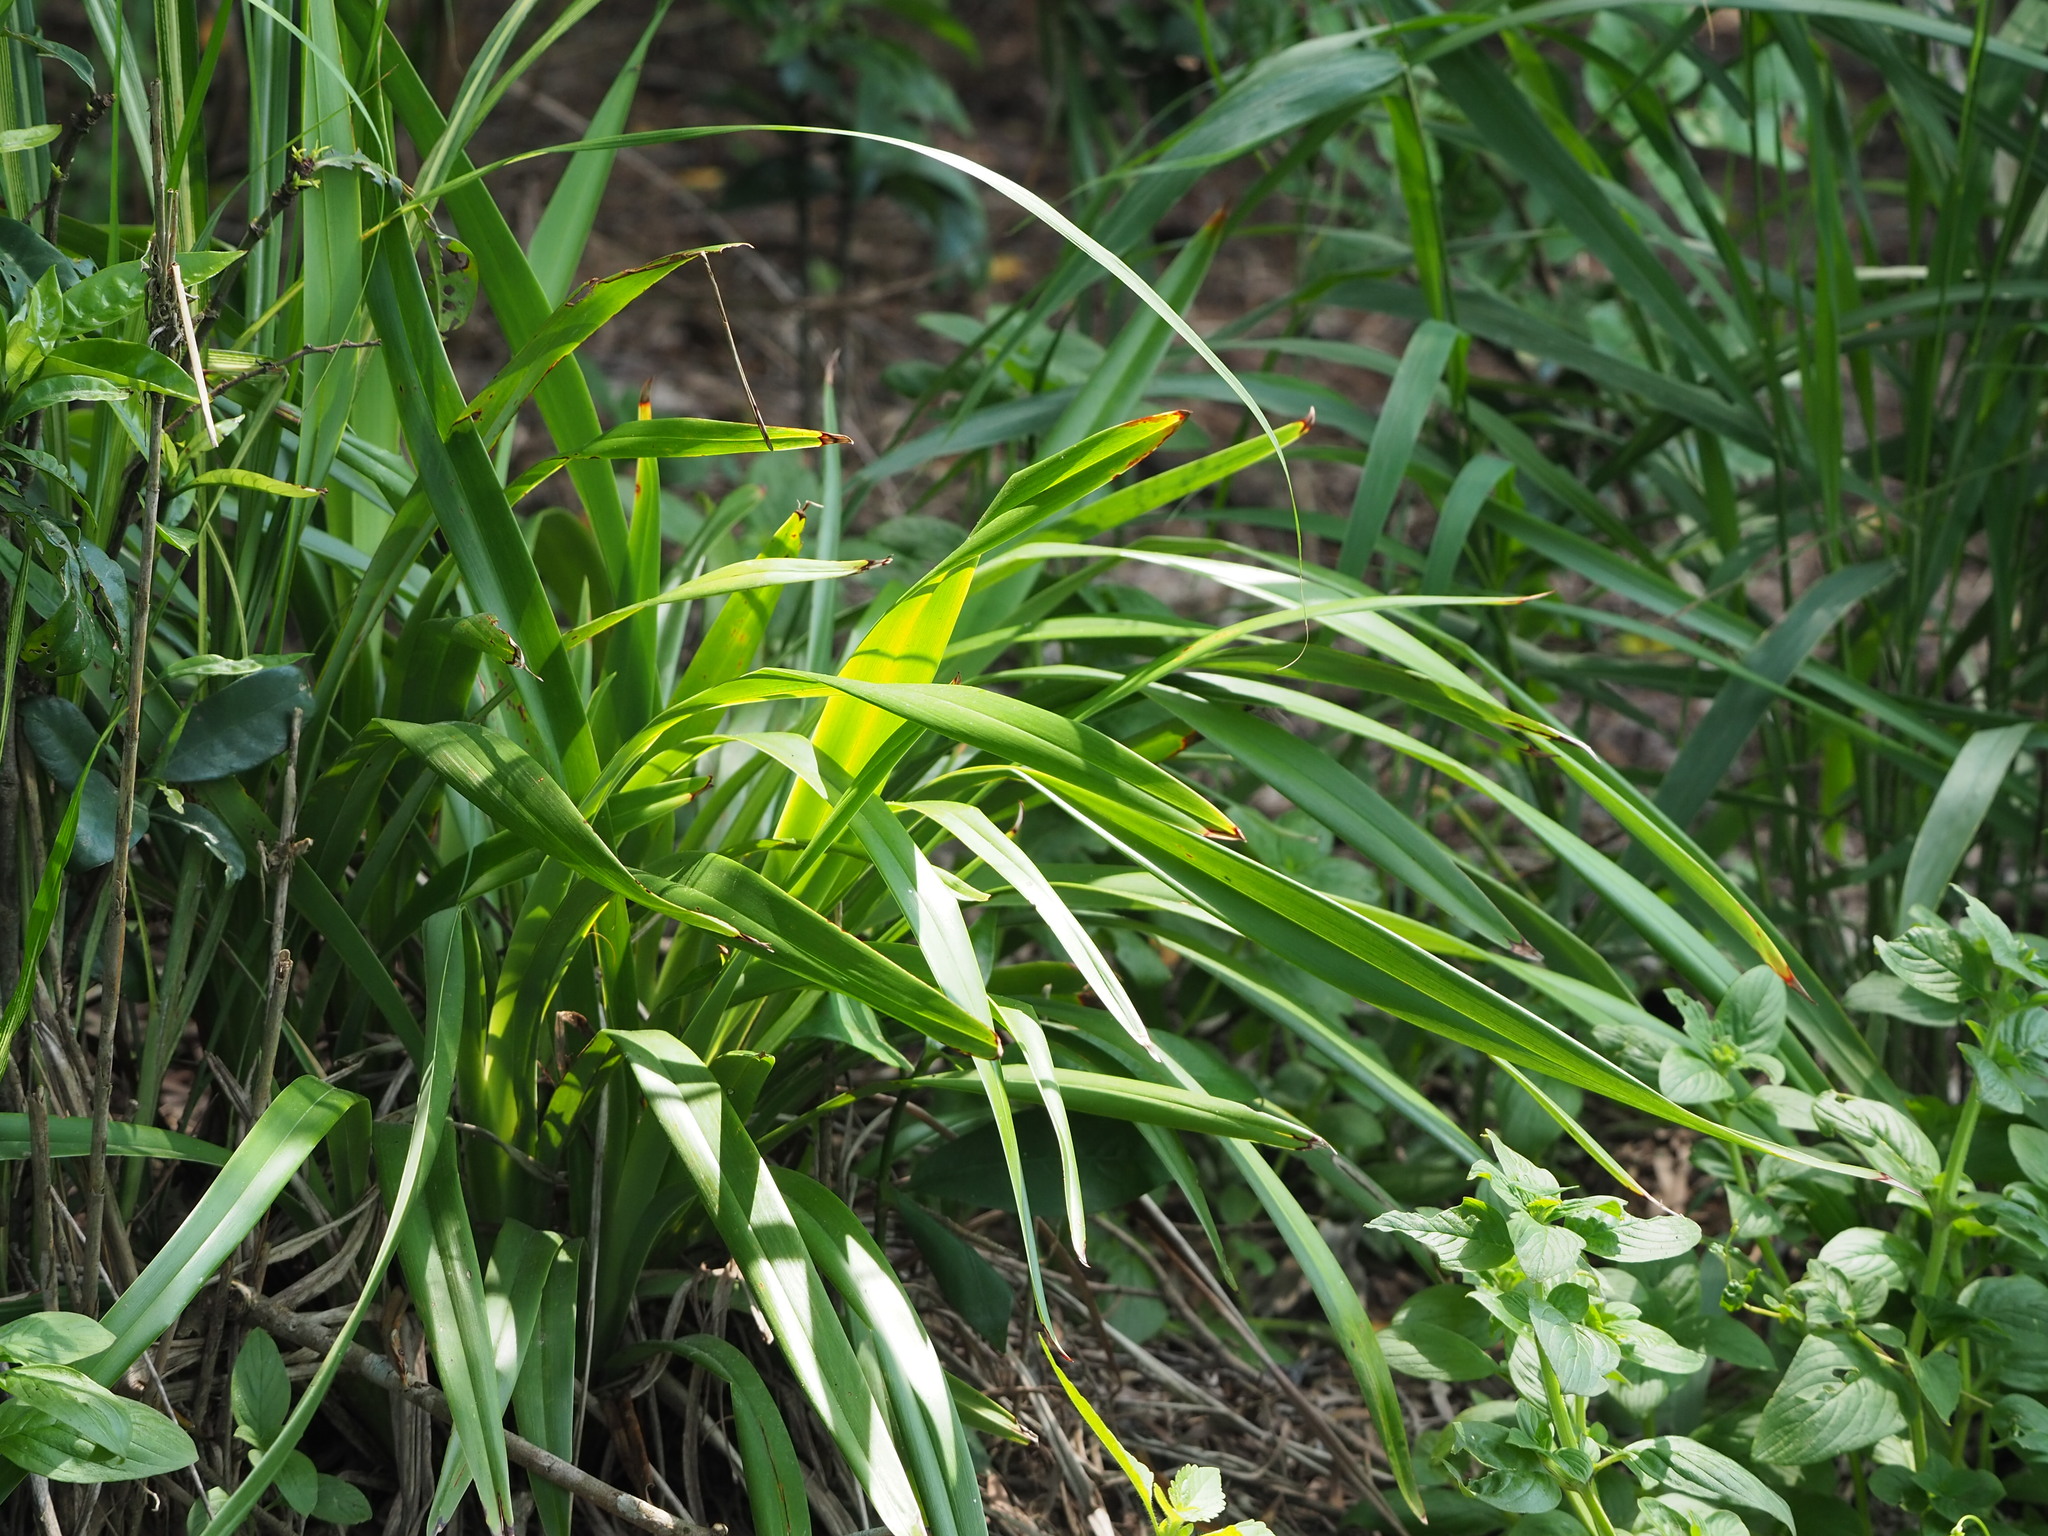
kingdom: Plantae
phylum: Tracheophyta
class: Liliopsida
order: Asparagales
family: Asphodelaceae
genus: Dianella
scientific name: Dianella ensifolia
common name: New zealand lilyplant
